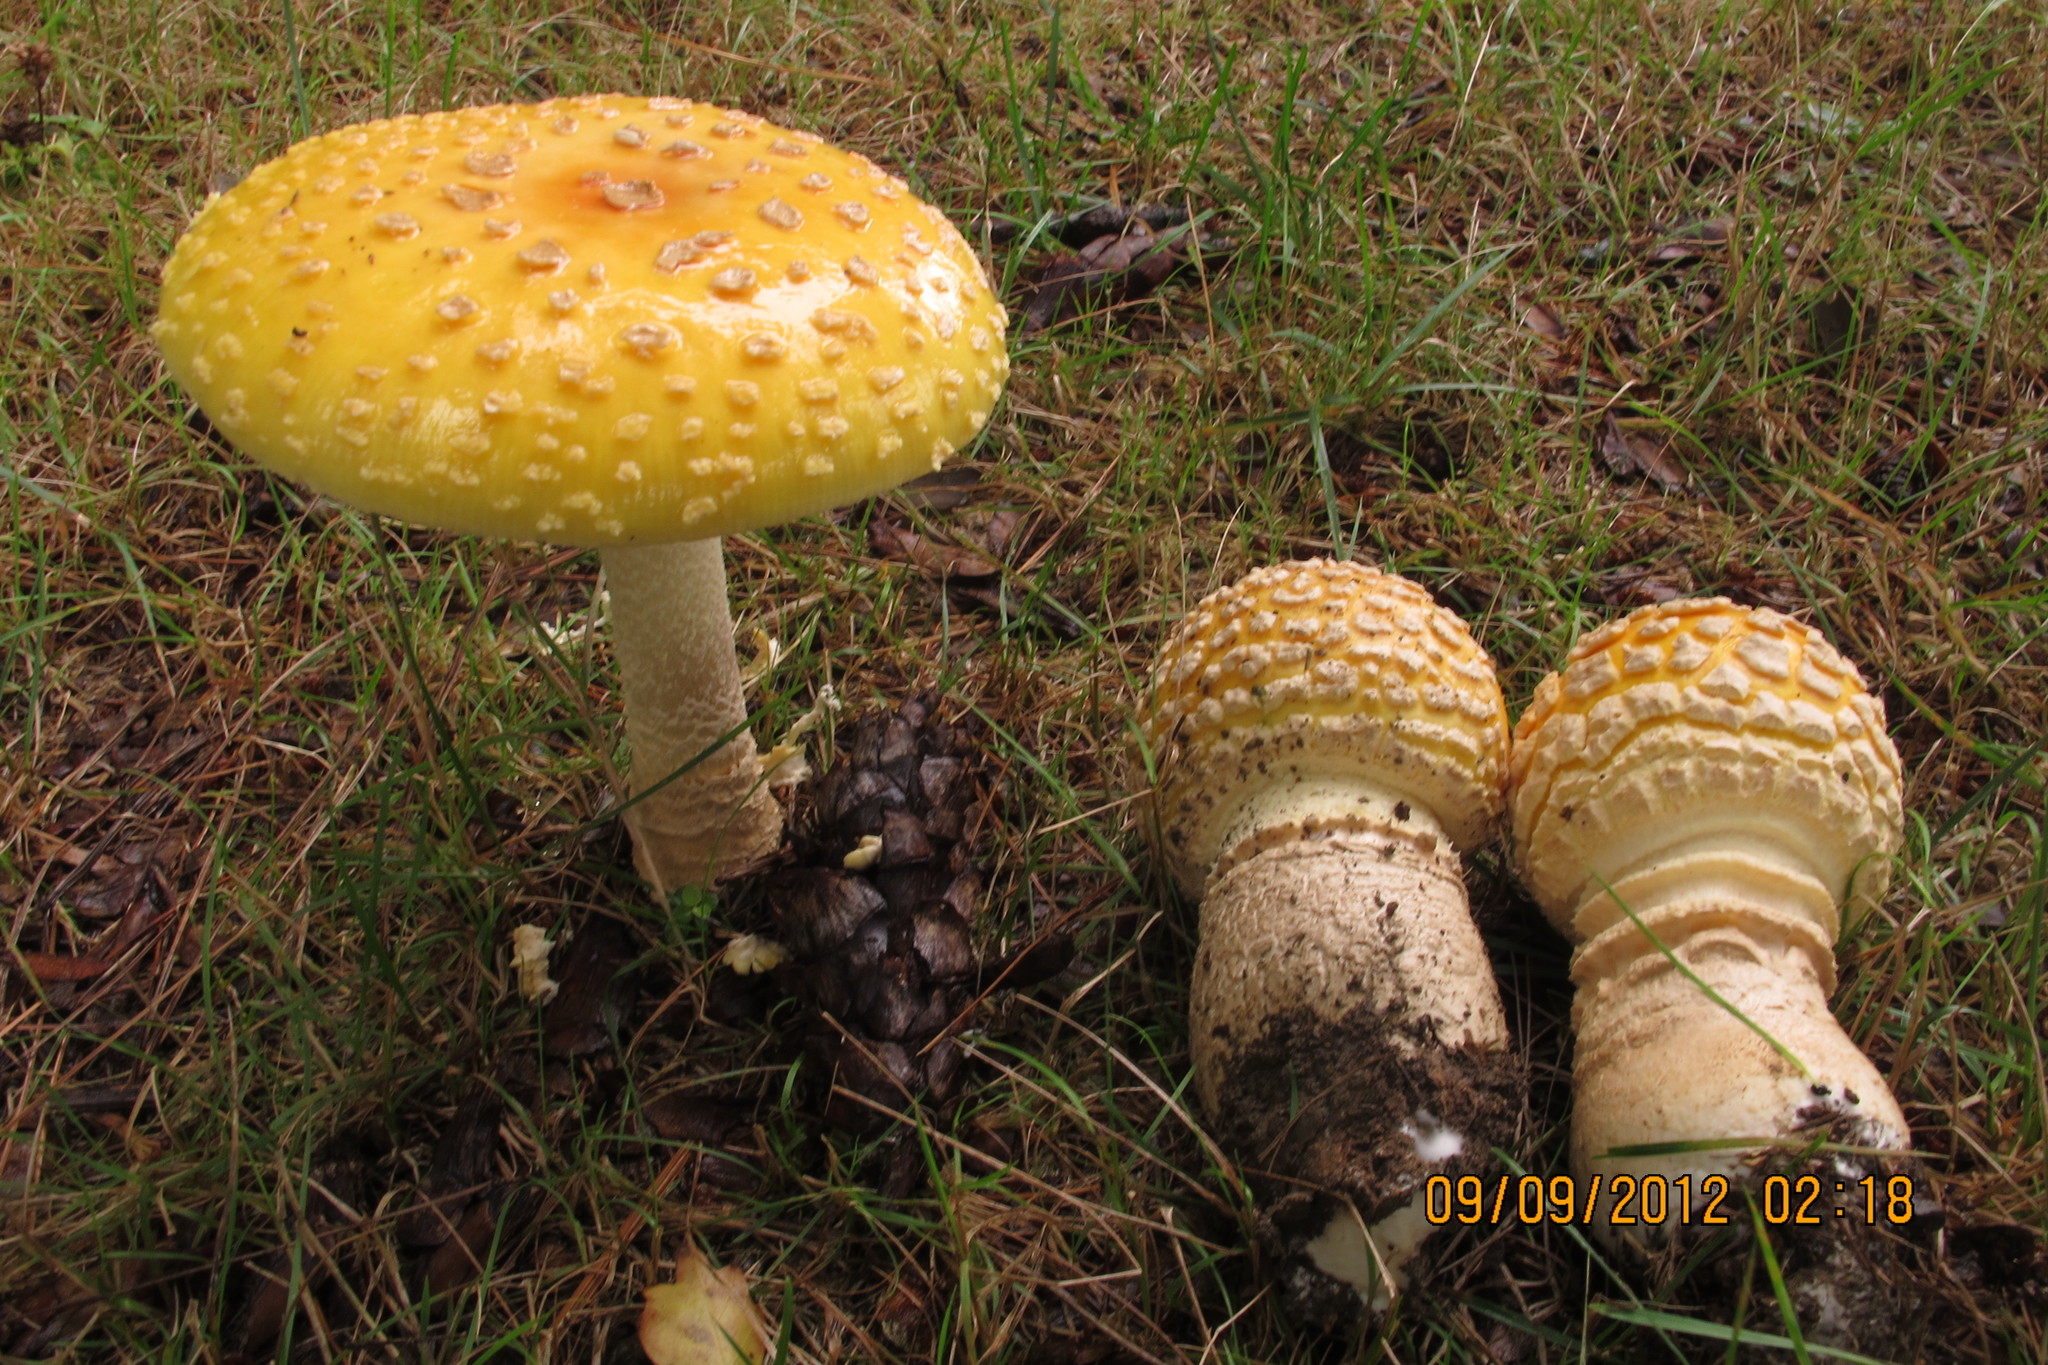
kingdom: Fungi
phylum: Basidiomycota
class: Agaricomycetes
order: Agaricales
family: Amanitaceae
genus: Amanita
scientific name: Amanita muscaria
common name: Fly agaric
